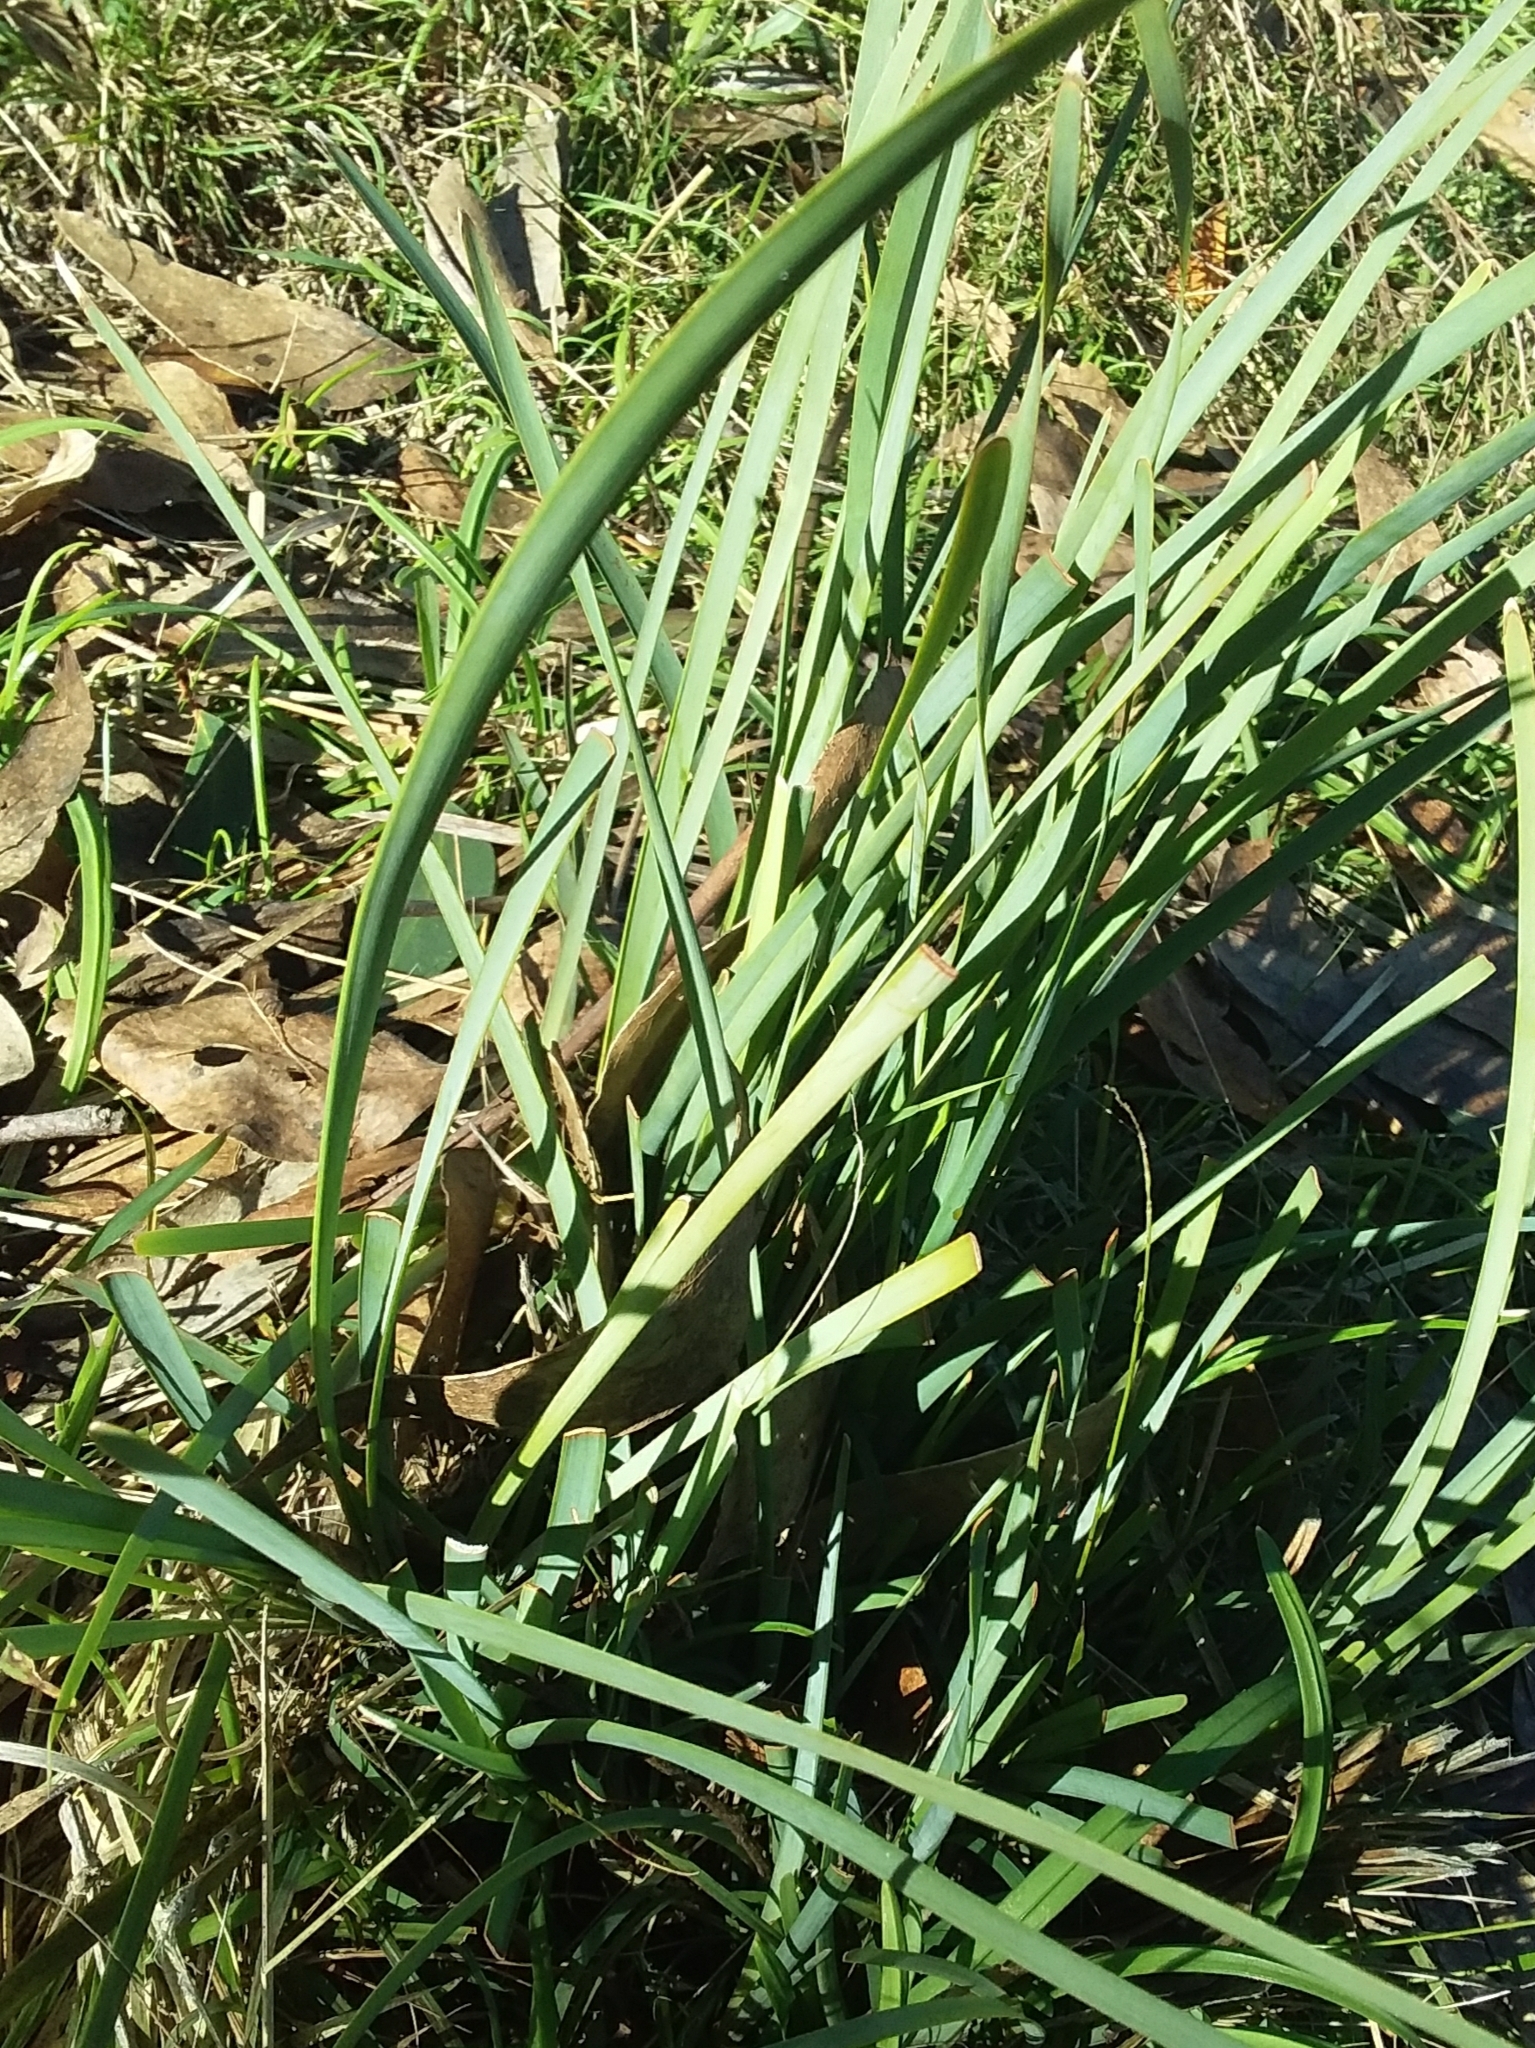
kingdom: Plantae
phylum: Tracheophyta
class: Liliopsida
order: Asparagales
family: Asparagaceae
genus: Lomandra
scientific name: Lomandra multiflora
